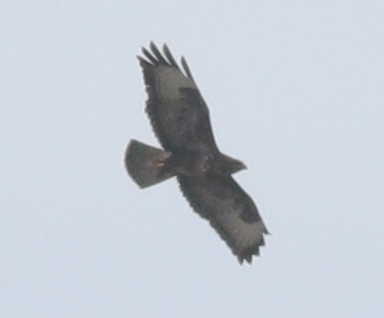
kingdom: Animalia
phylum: Chordata
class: Aves
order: Accipitriformes
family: Accipitridae
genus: Buteo
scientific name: Buteo buteo
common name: Common buzzard
